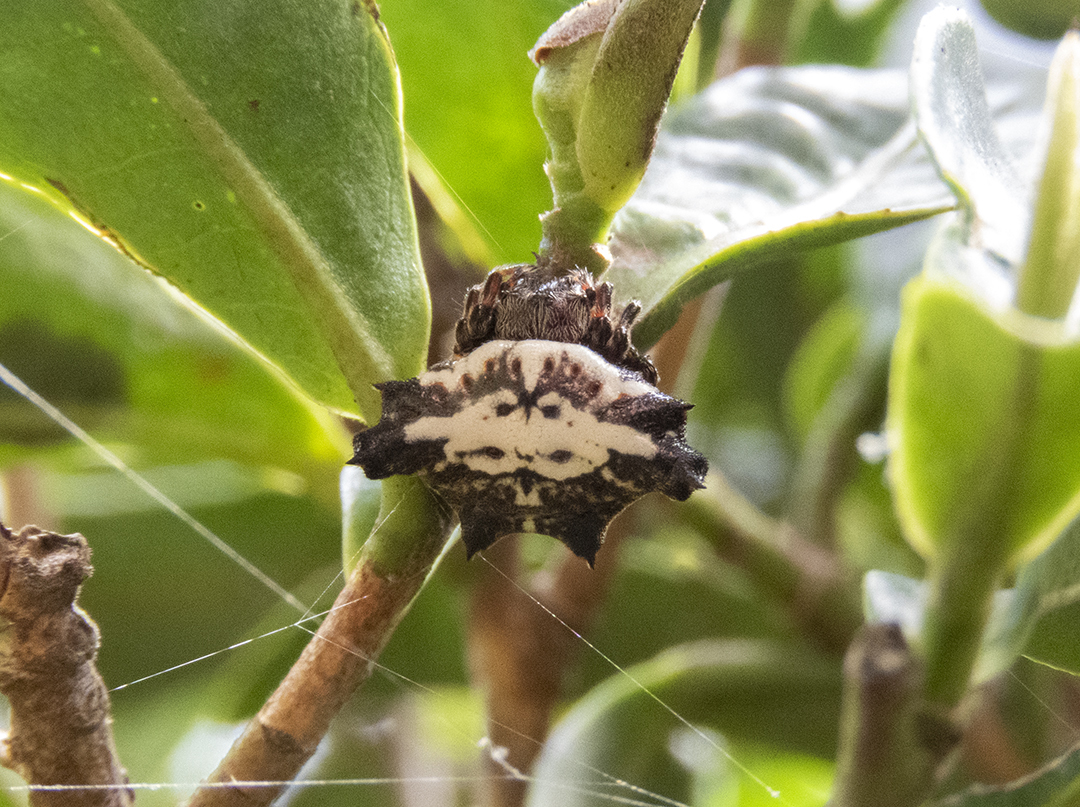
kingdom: Animalia
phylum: Arthropoda
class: Arachnida
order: Araneae
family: Araneidae
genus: Gasteracantha
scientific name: Gasteracantha unguifera
